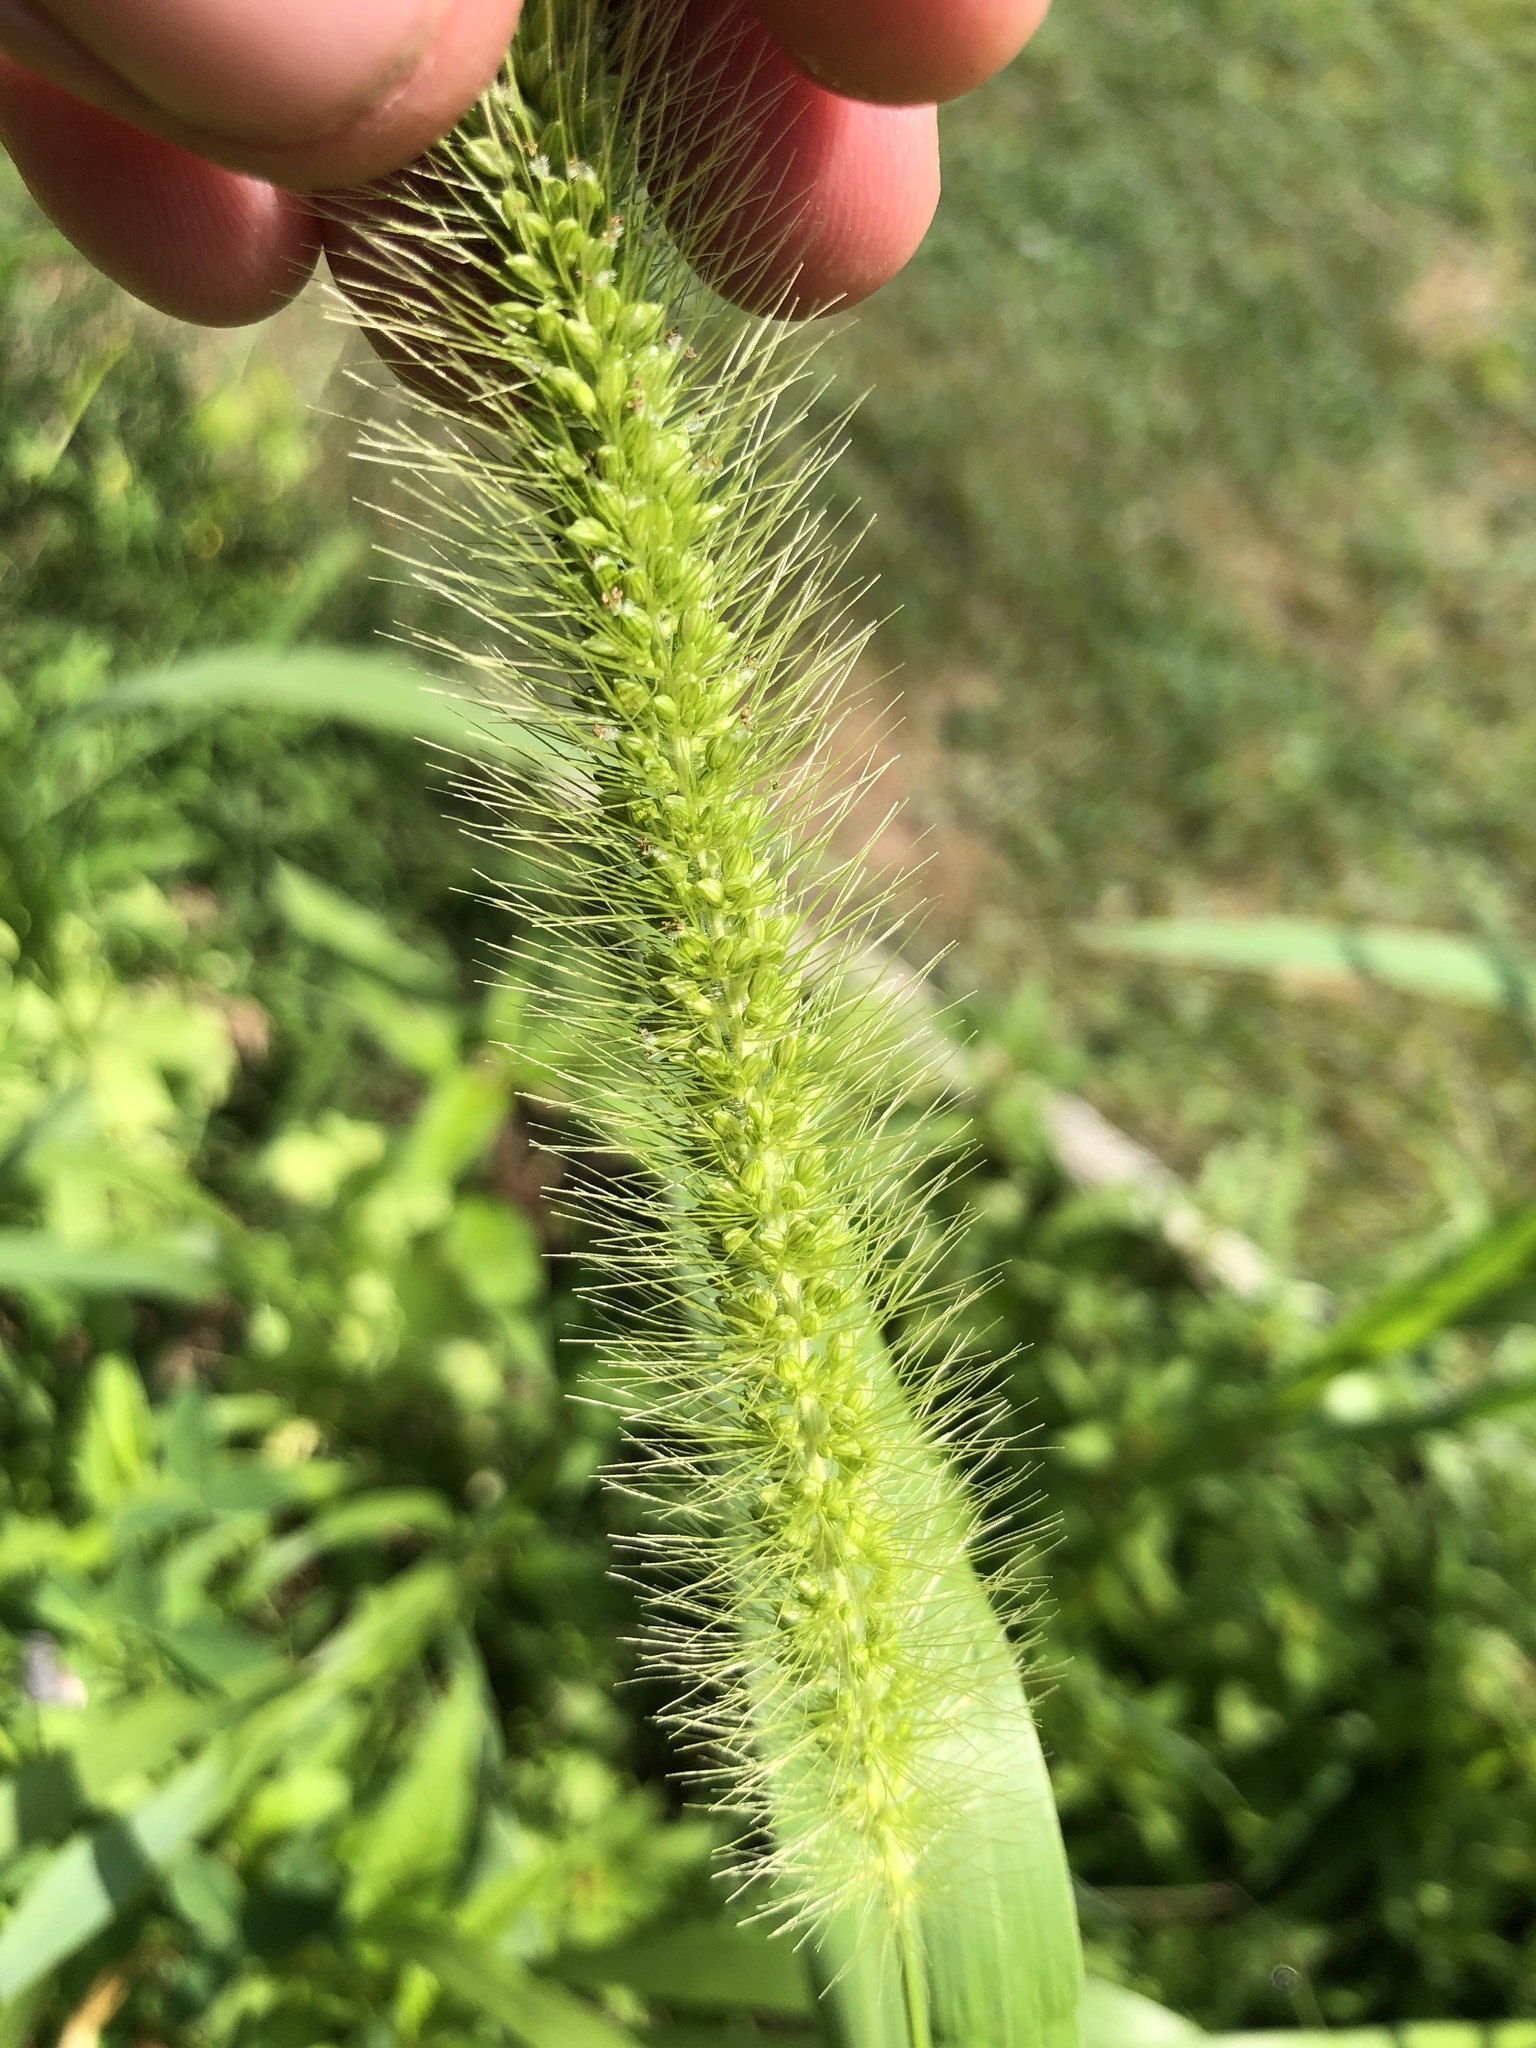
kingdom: Plantae
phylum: Tracheophyta
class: Liliopsida
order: Poales
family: Poaceae
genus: Setaria
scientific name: Setaria faberi
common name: Nodding bristle-grass
